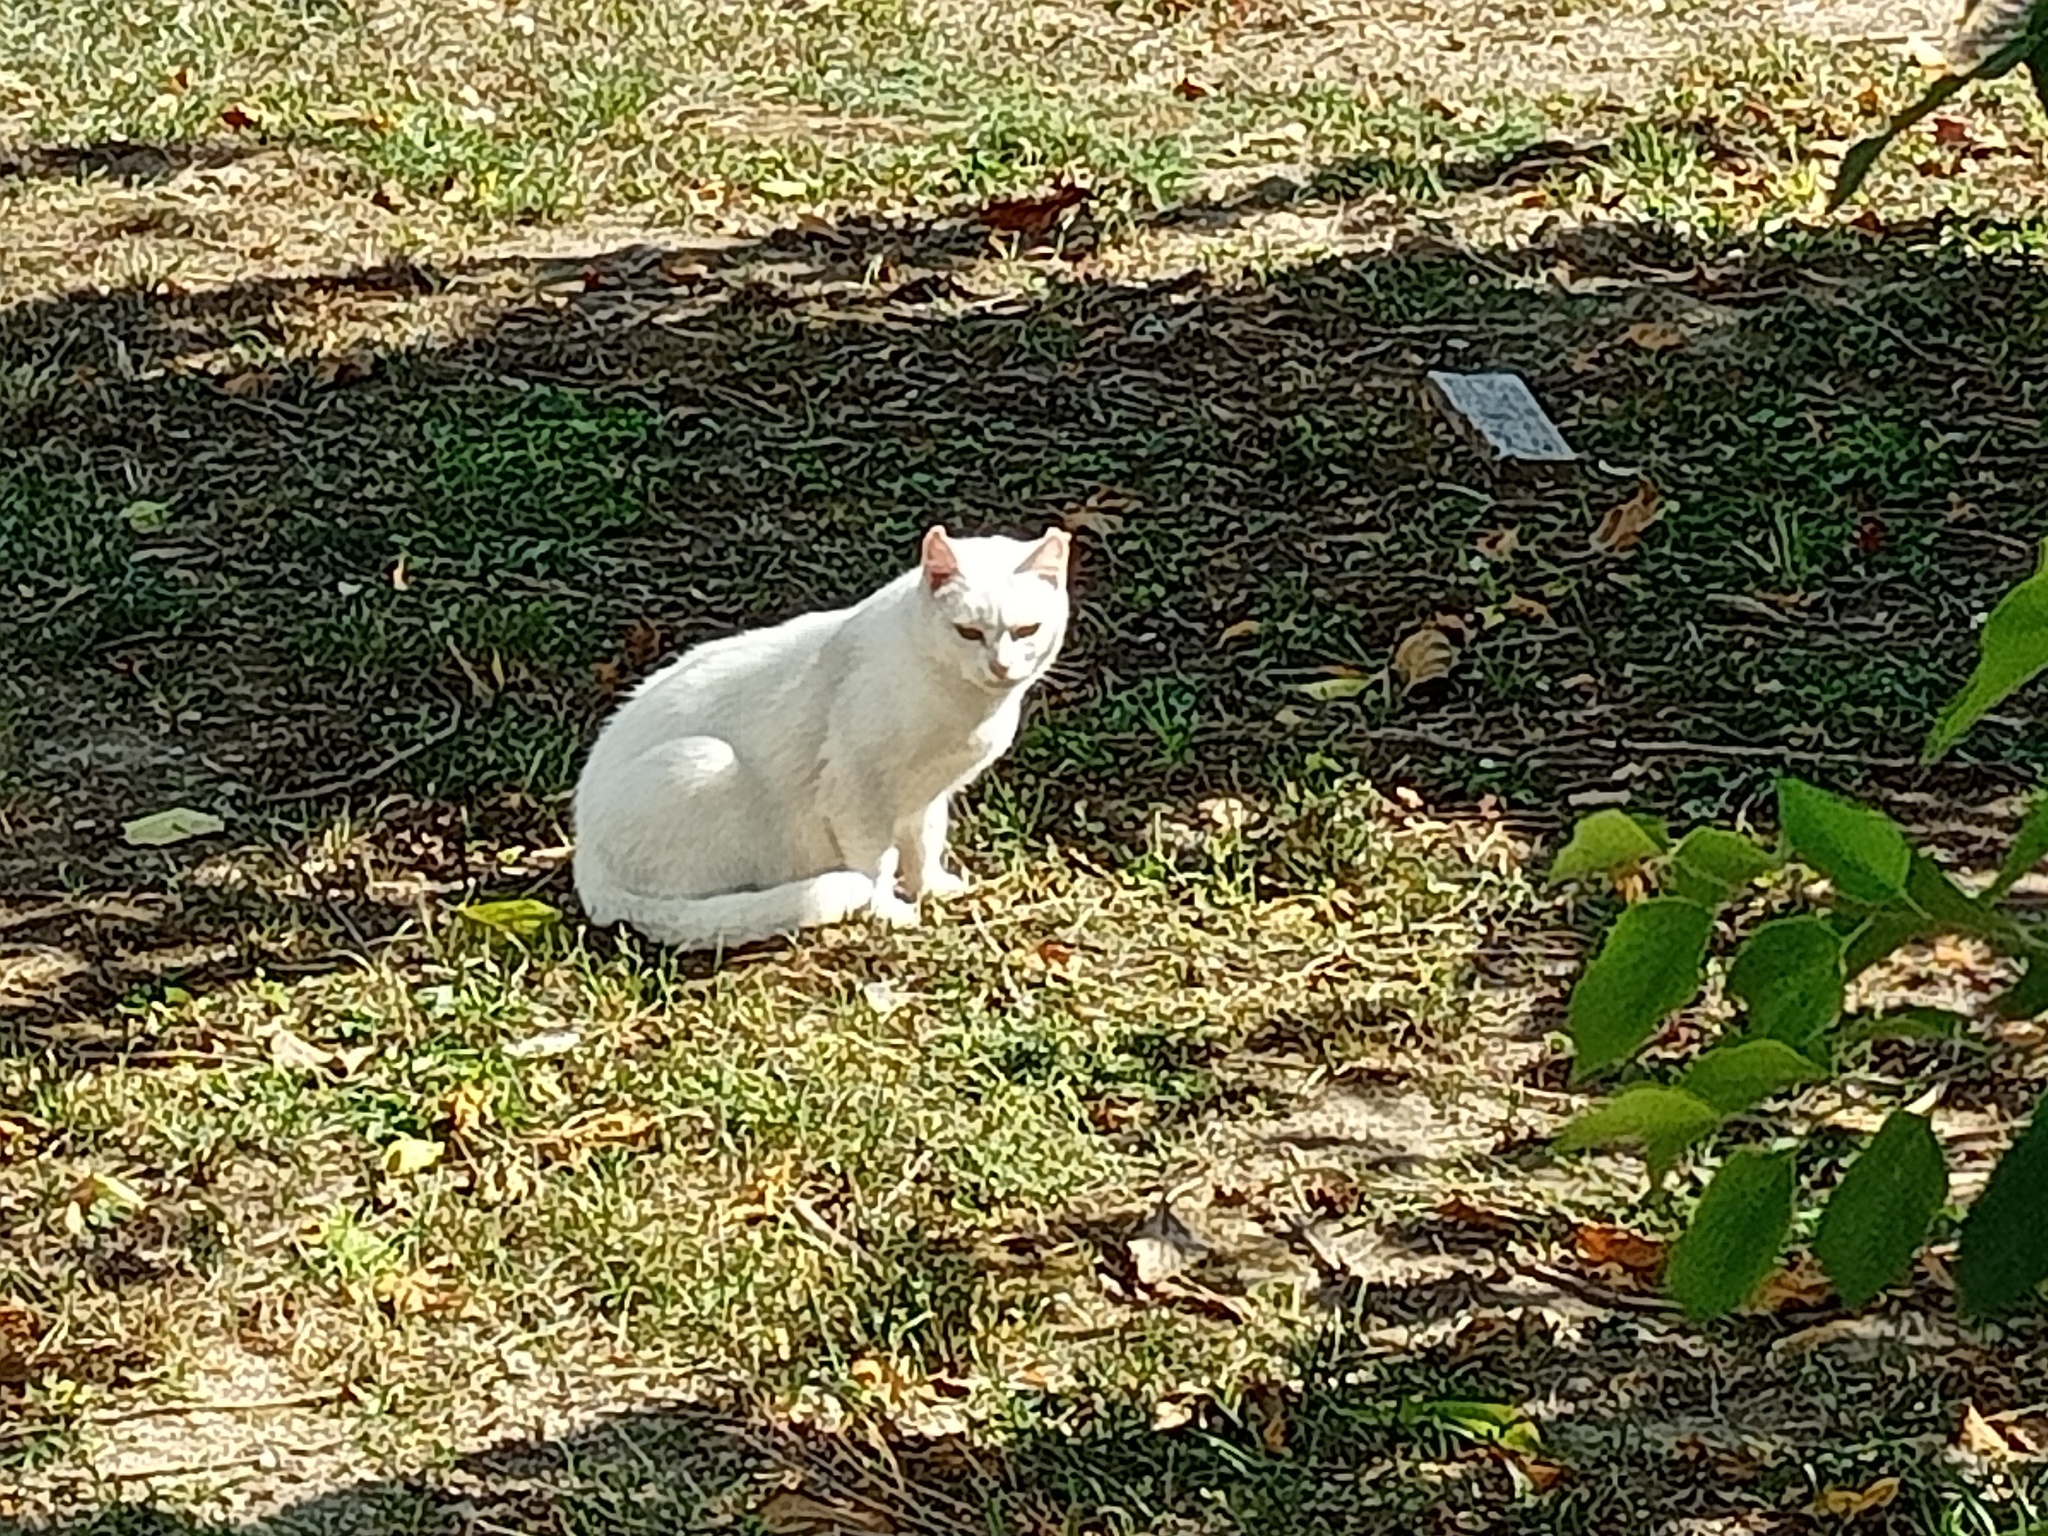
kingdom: Animalia
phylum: Chordata
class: Mammalia
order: Carnivora
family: Felidae
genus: Felis
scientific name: Felis catus
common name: Domestic cat
